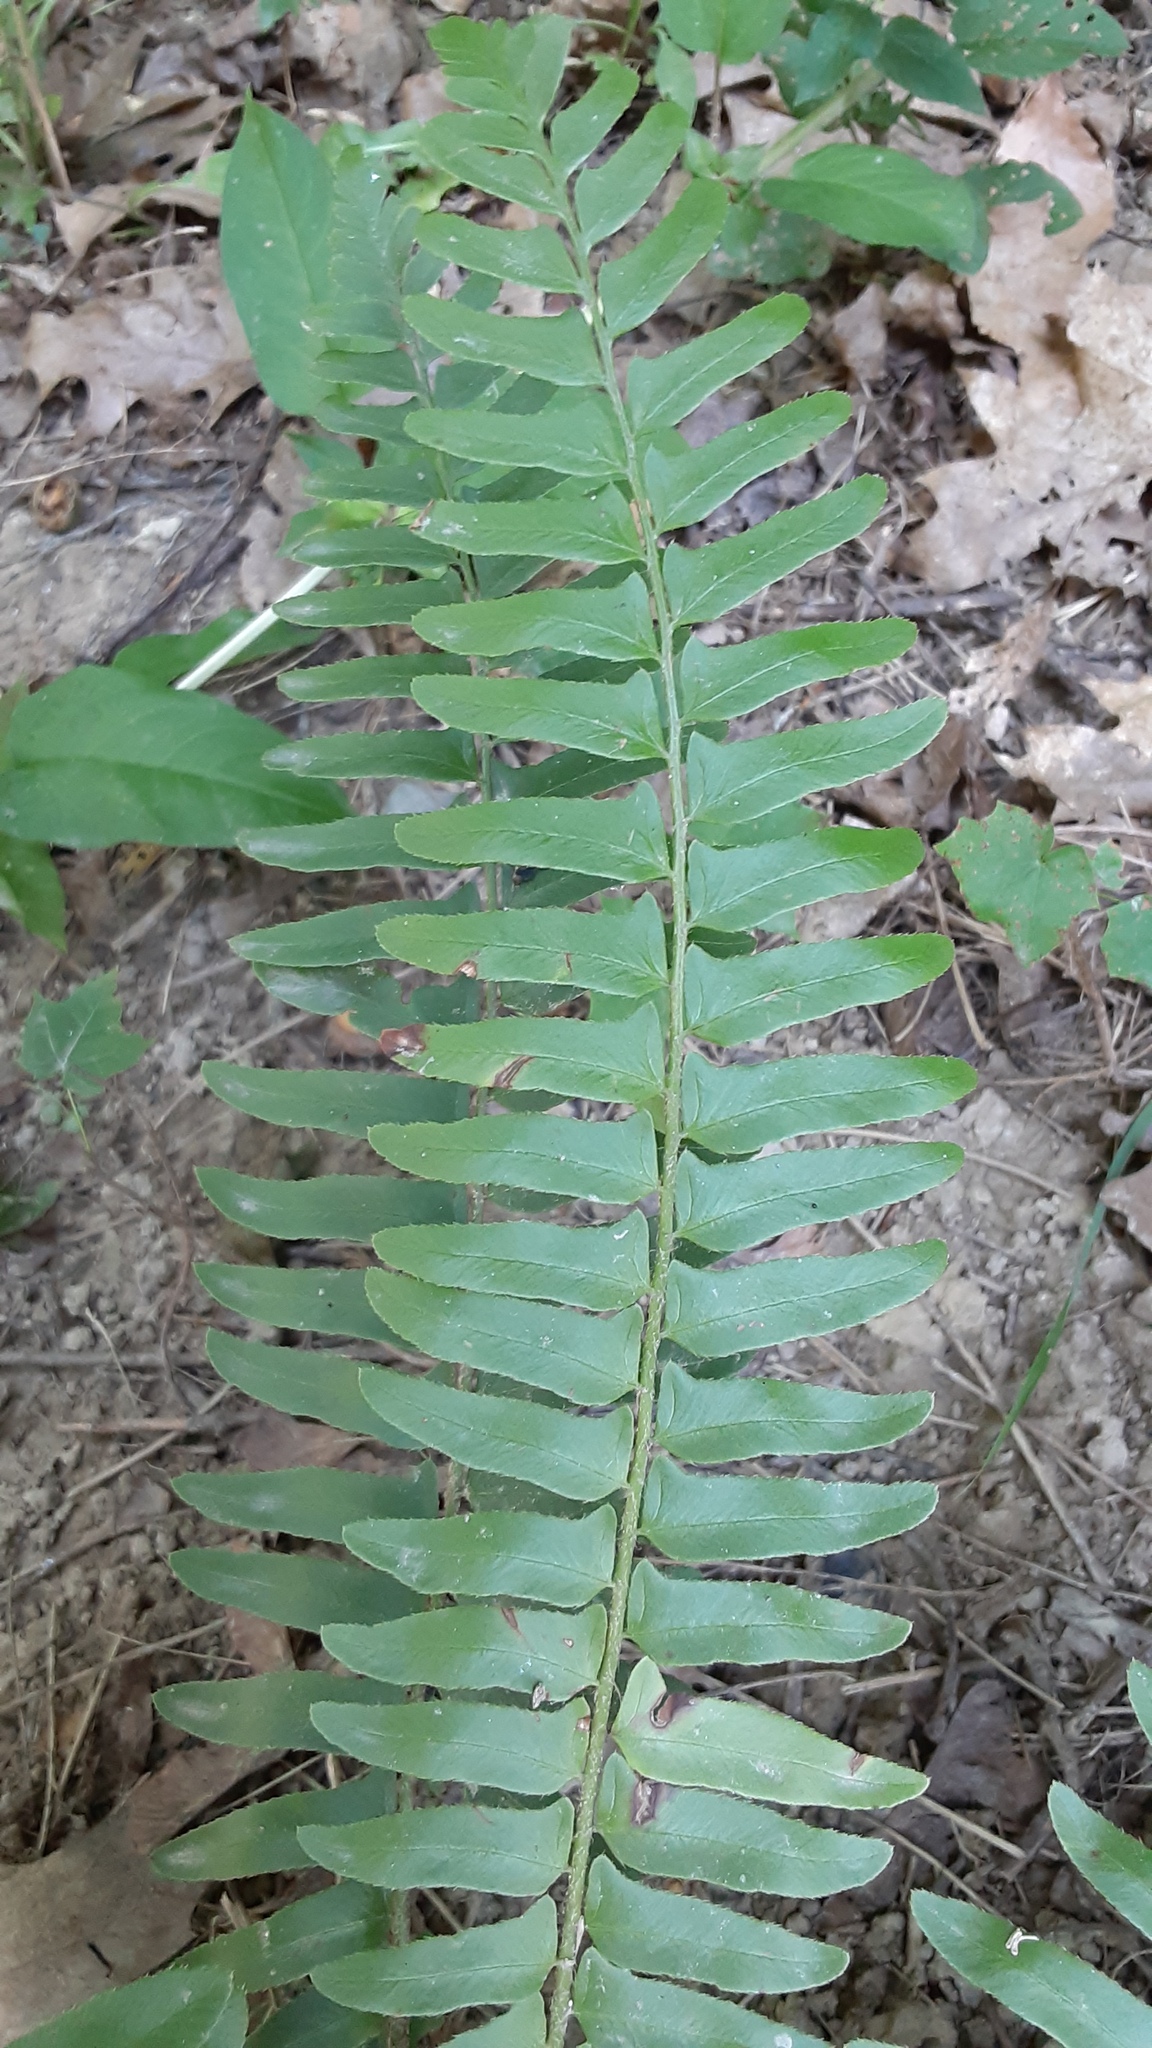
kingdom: Plantae
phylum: Tracheophyta
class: Polypodiopsida
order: Polypodiales
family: Dryopteridaceae
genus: Polystichum
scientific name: Polystichum acrostichoides
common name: Christmas fern
